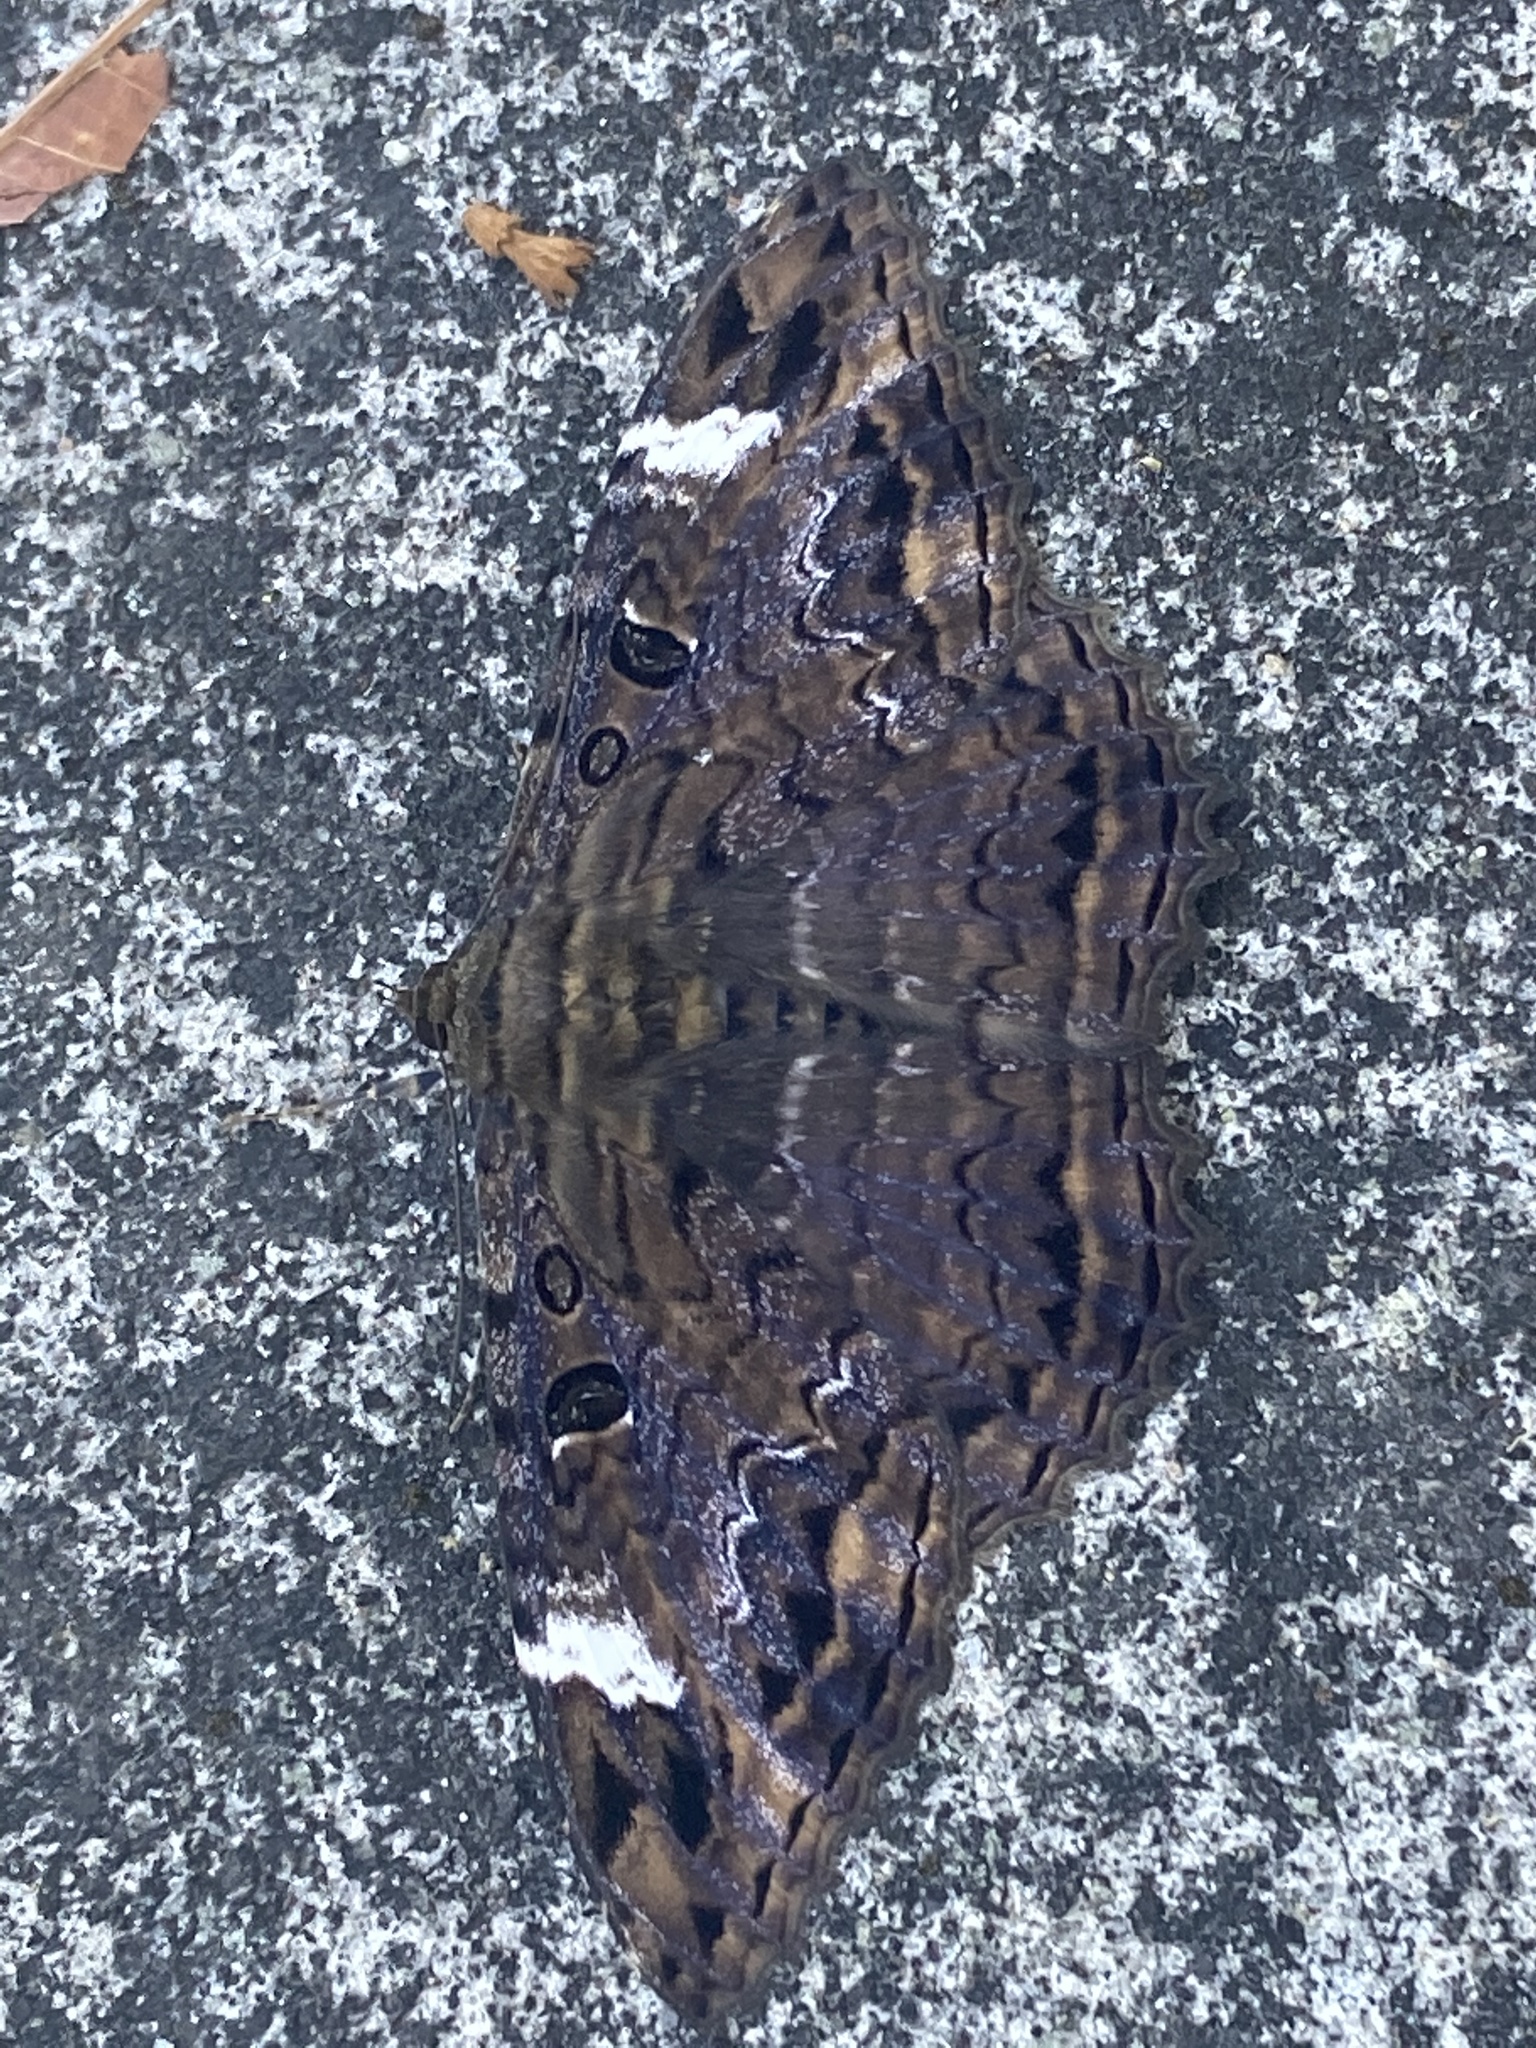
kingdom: Animalia
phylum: Arthropoda
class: Insecta
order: Lepidoptera
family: Erebidae
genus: Feigeria
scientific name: Feigeria
